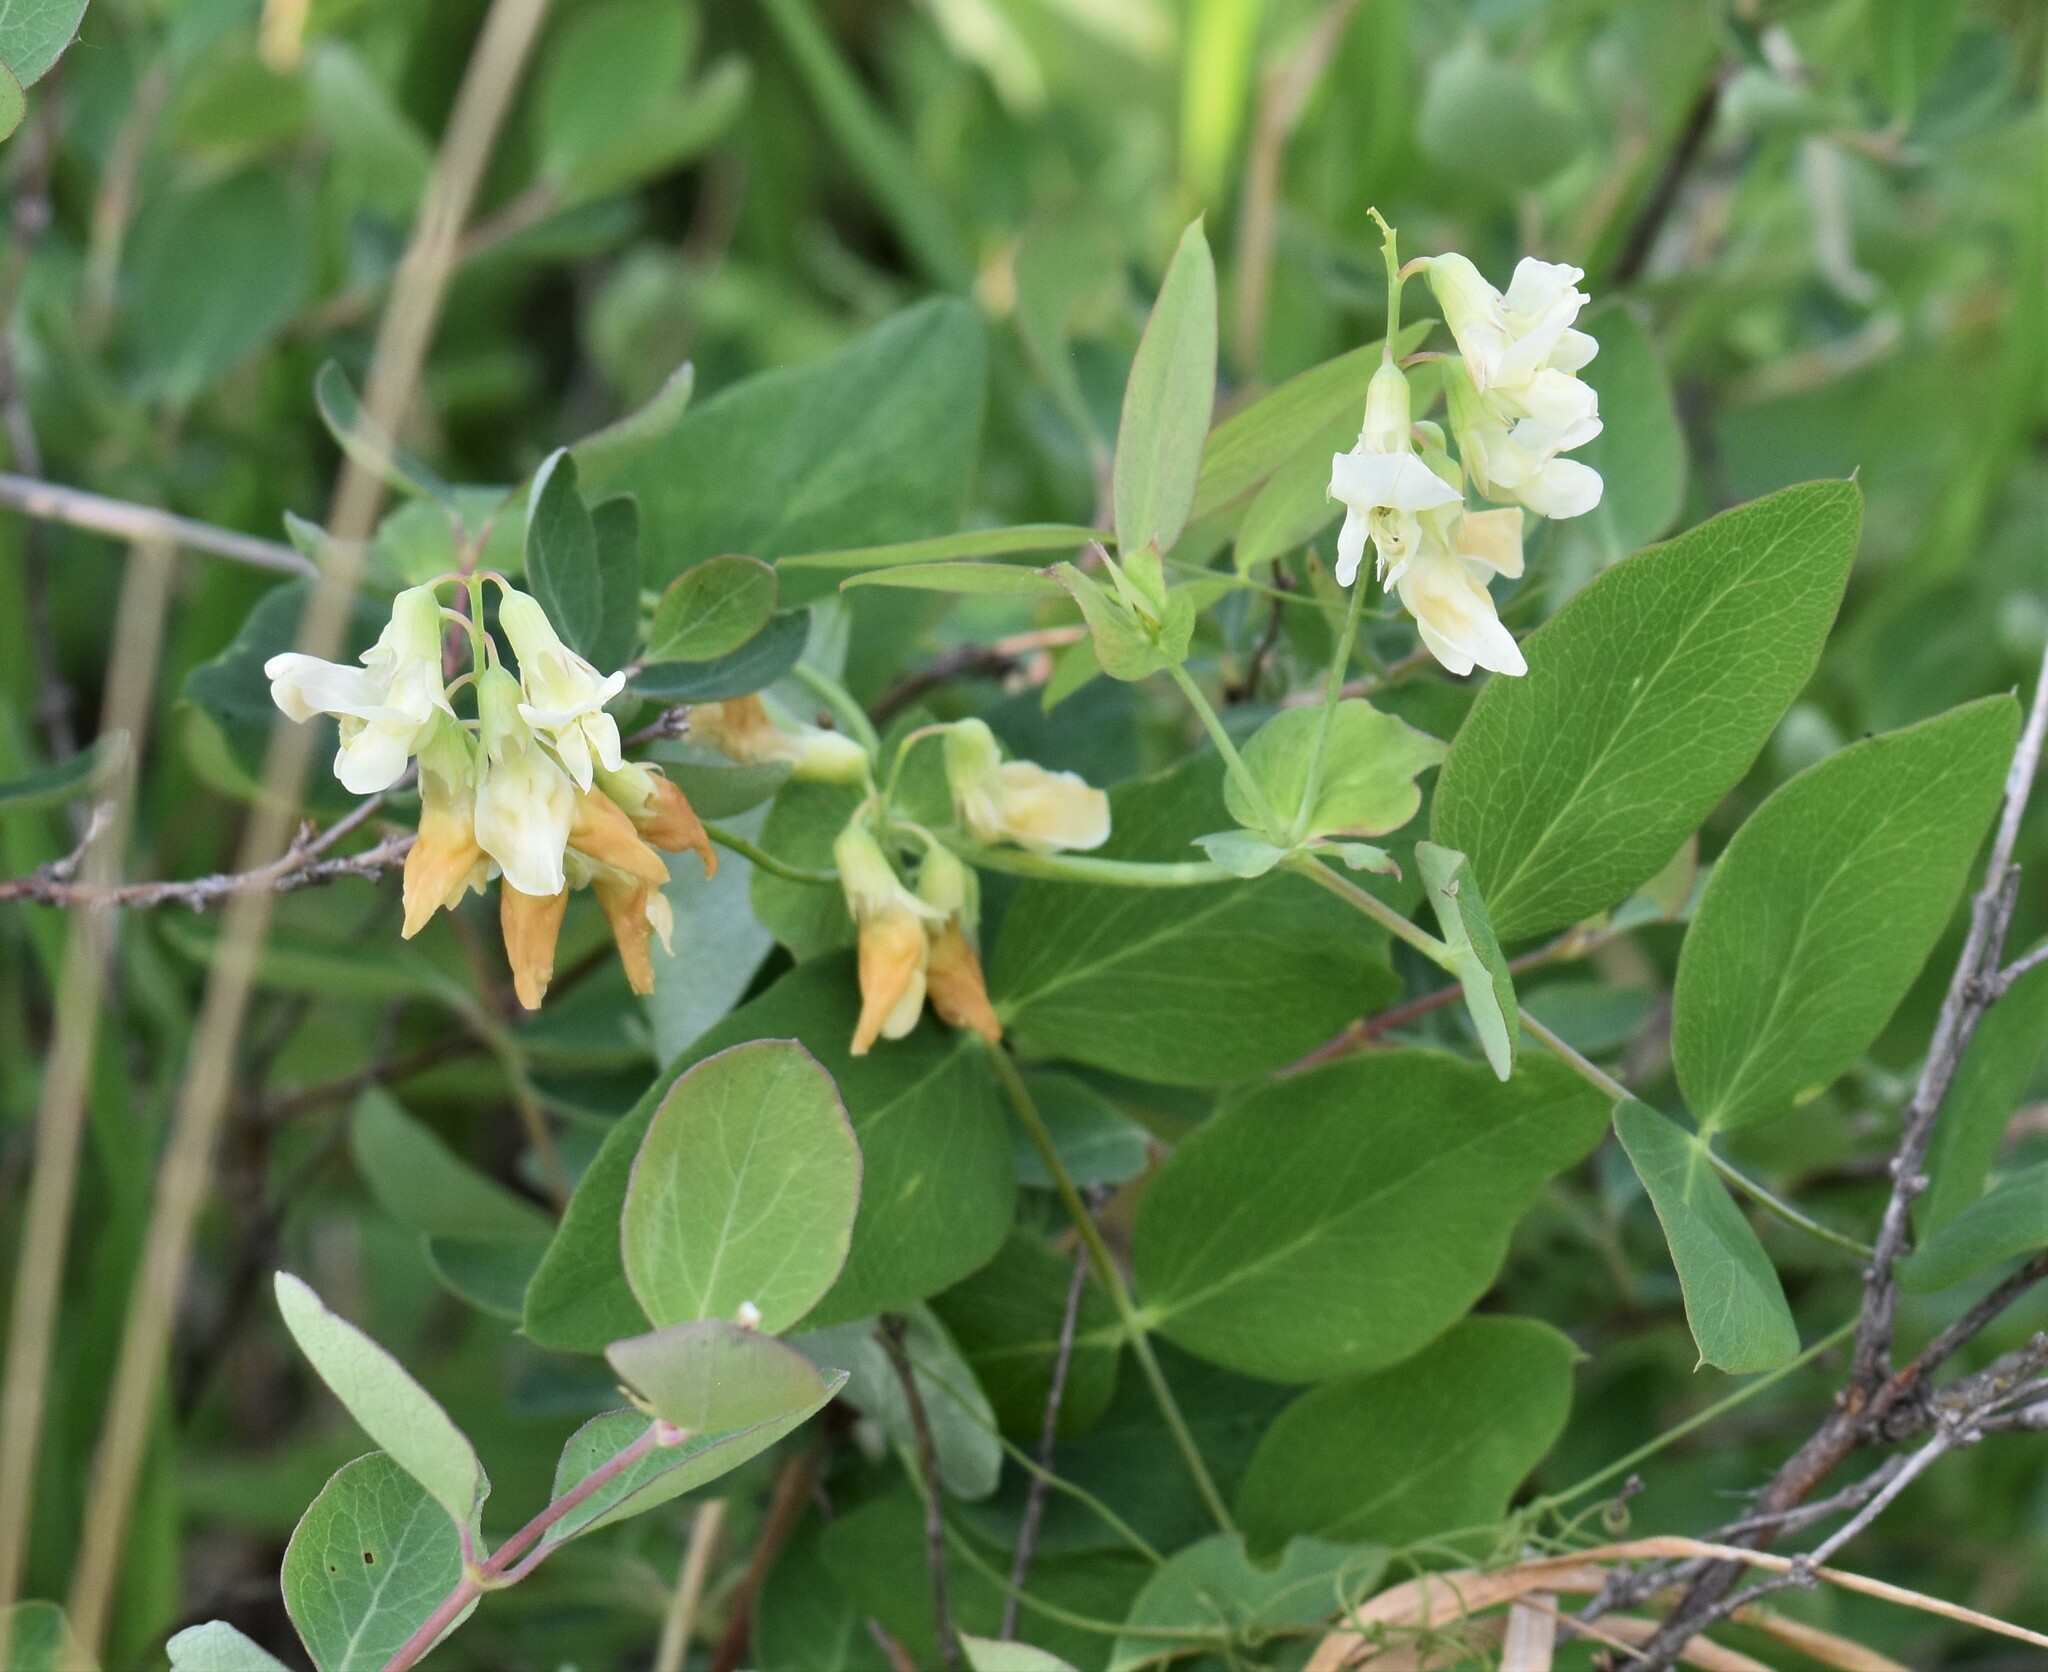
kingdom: Plantae
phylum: Tracheophyta
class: Magnoliopsida
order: Fabales
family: Fabaceae
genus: Lathyrus
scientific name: Lathyrus ochroleucus
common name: Pale vetchling
